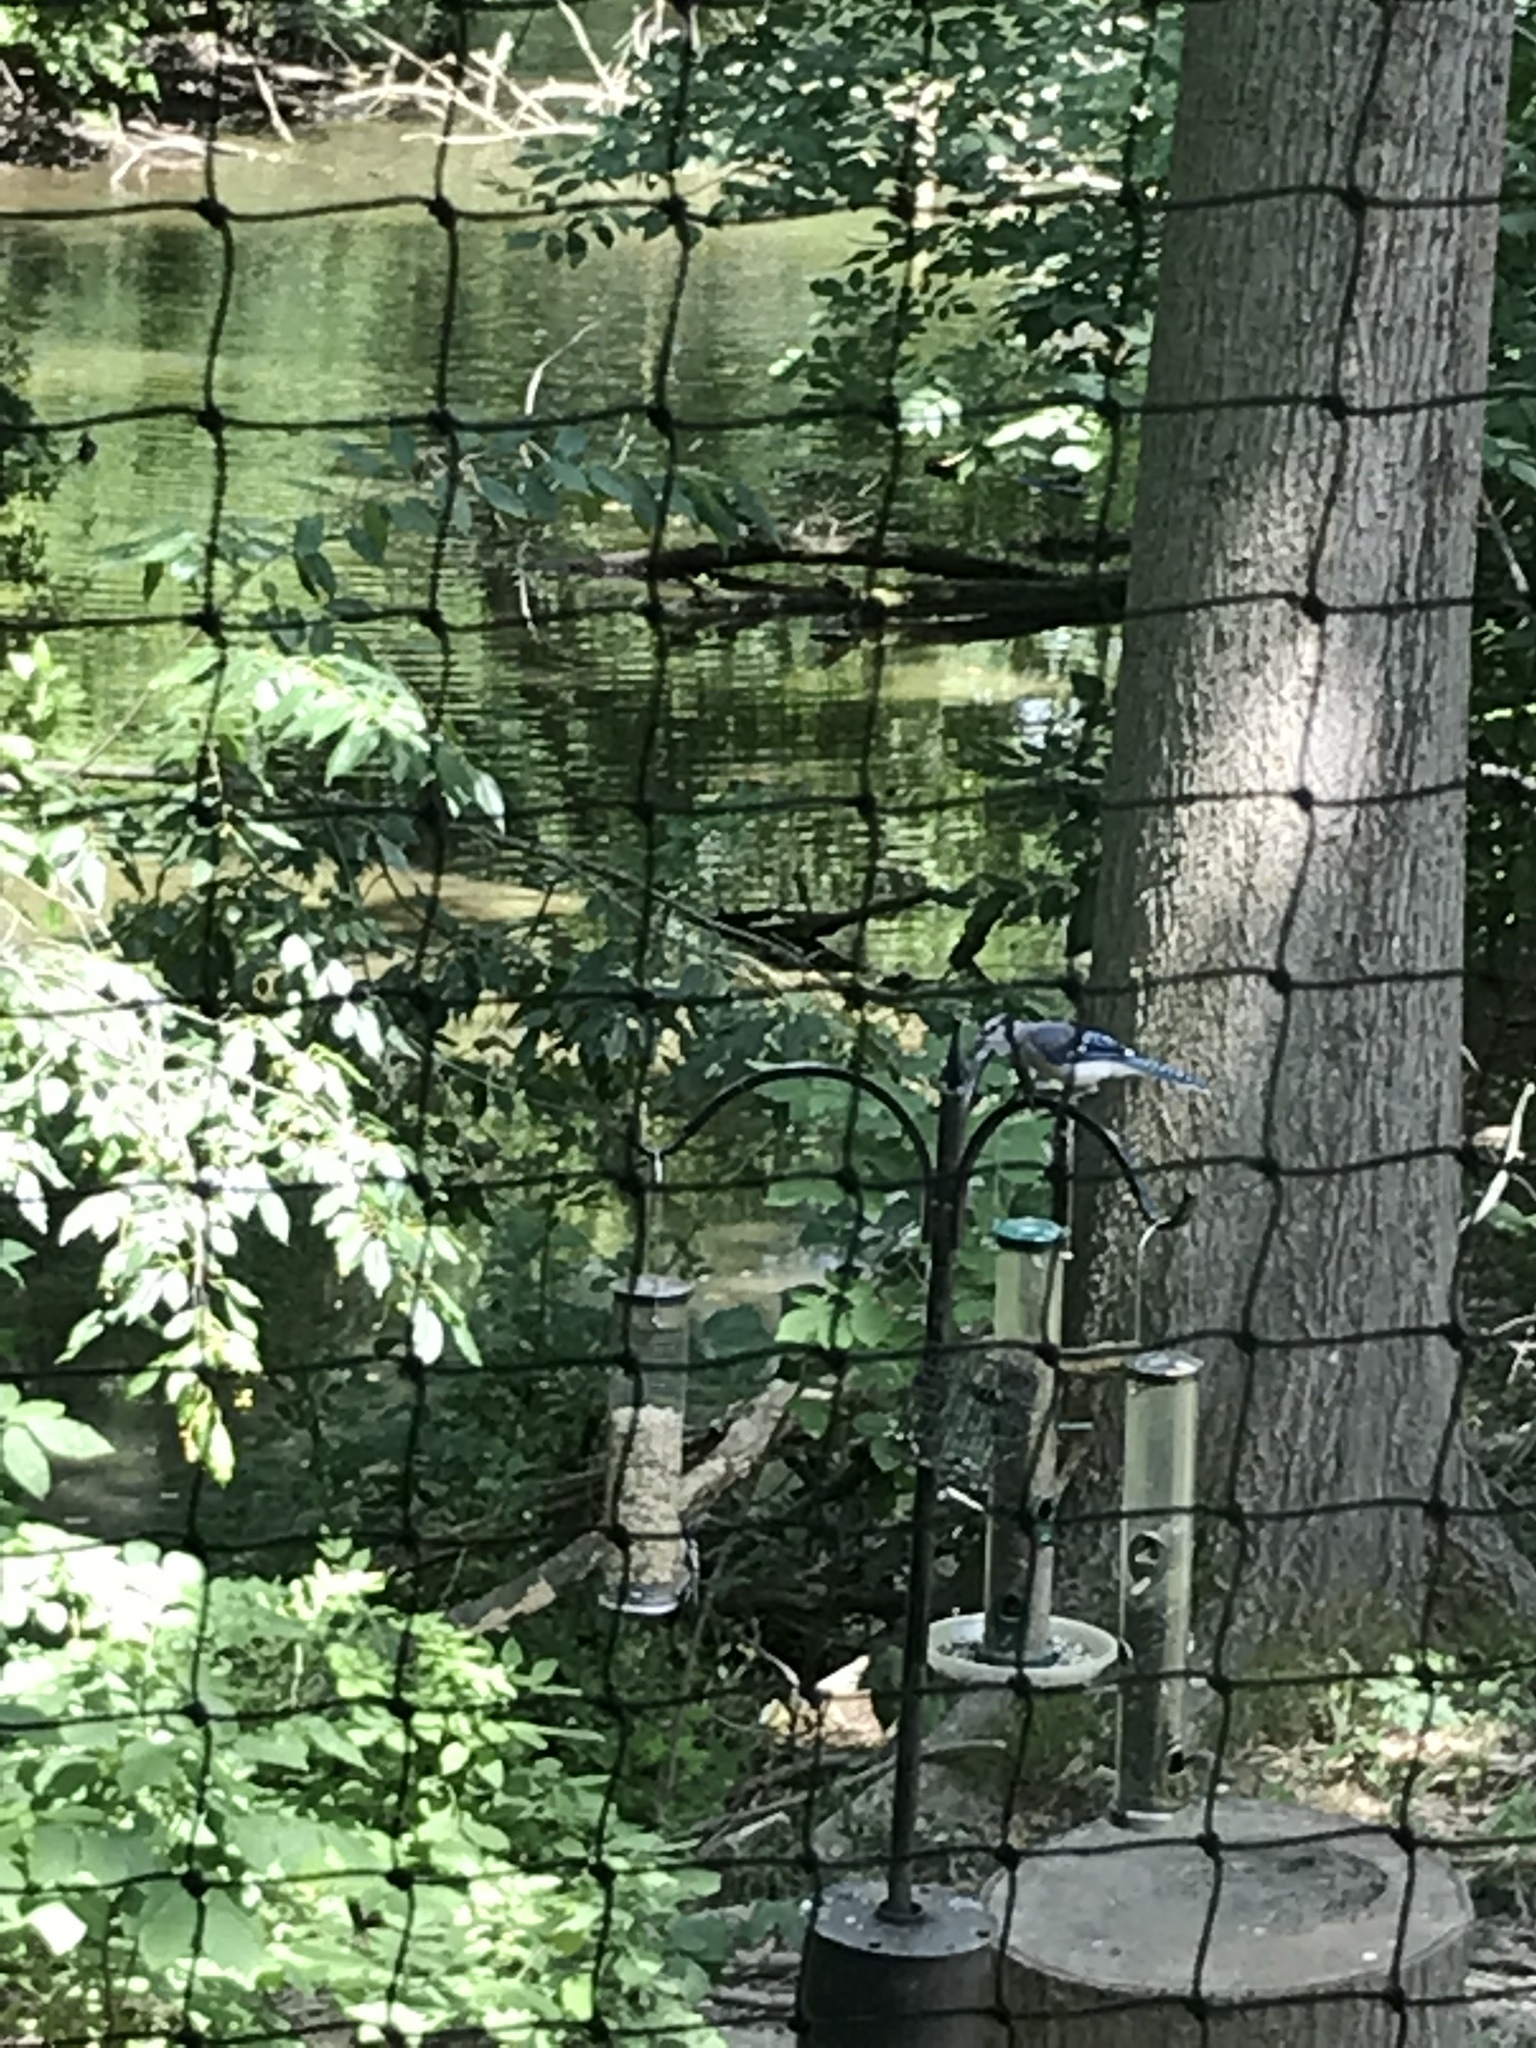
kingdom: Animalia
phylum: Chordata
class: Aves
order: Passeriformes
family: Corvidae
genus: Cyanocitta
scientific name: Cyanocitta cristata
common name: Blue jay
